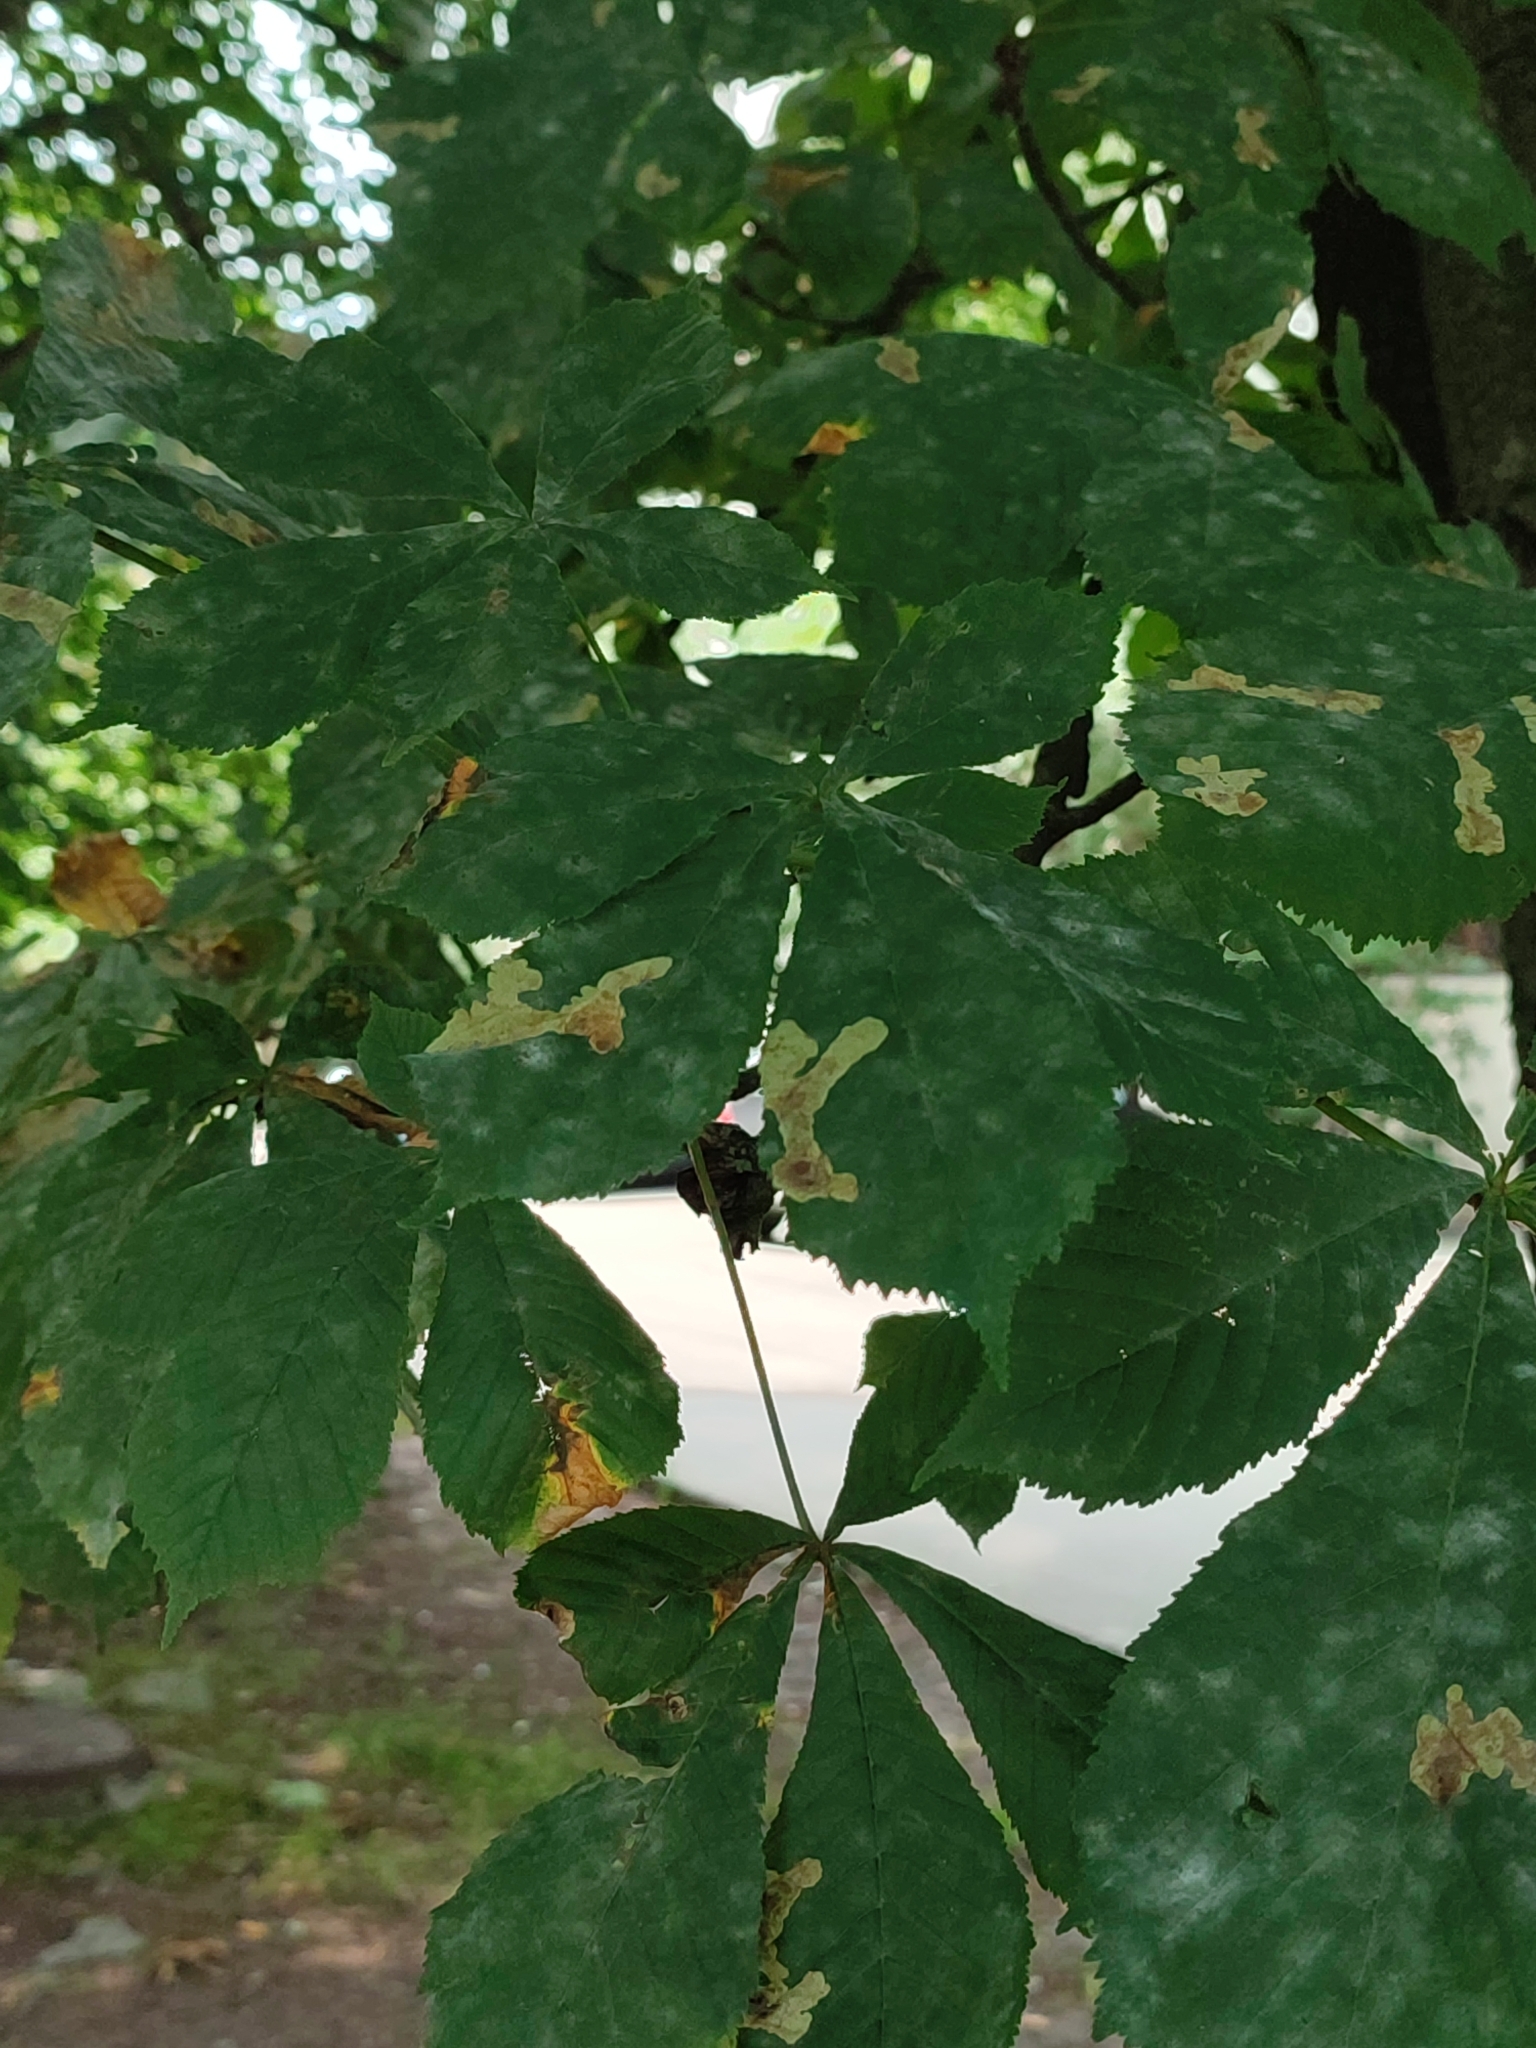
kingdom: Animalia
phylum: Arthropoda
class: Insecta
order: Lepidoptera
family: Gracillariidae
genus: Cameraria
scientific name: Cameraria ohridella
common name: Horse-chestnut leaf-miner
